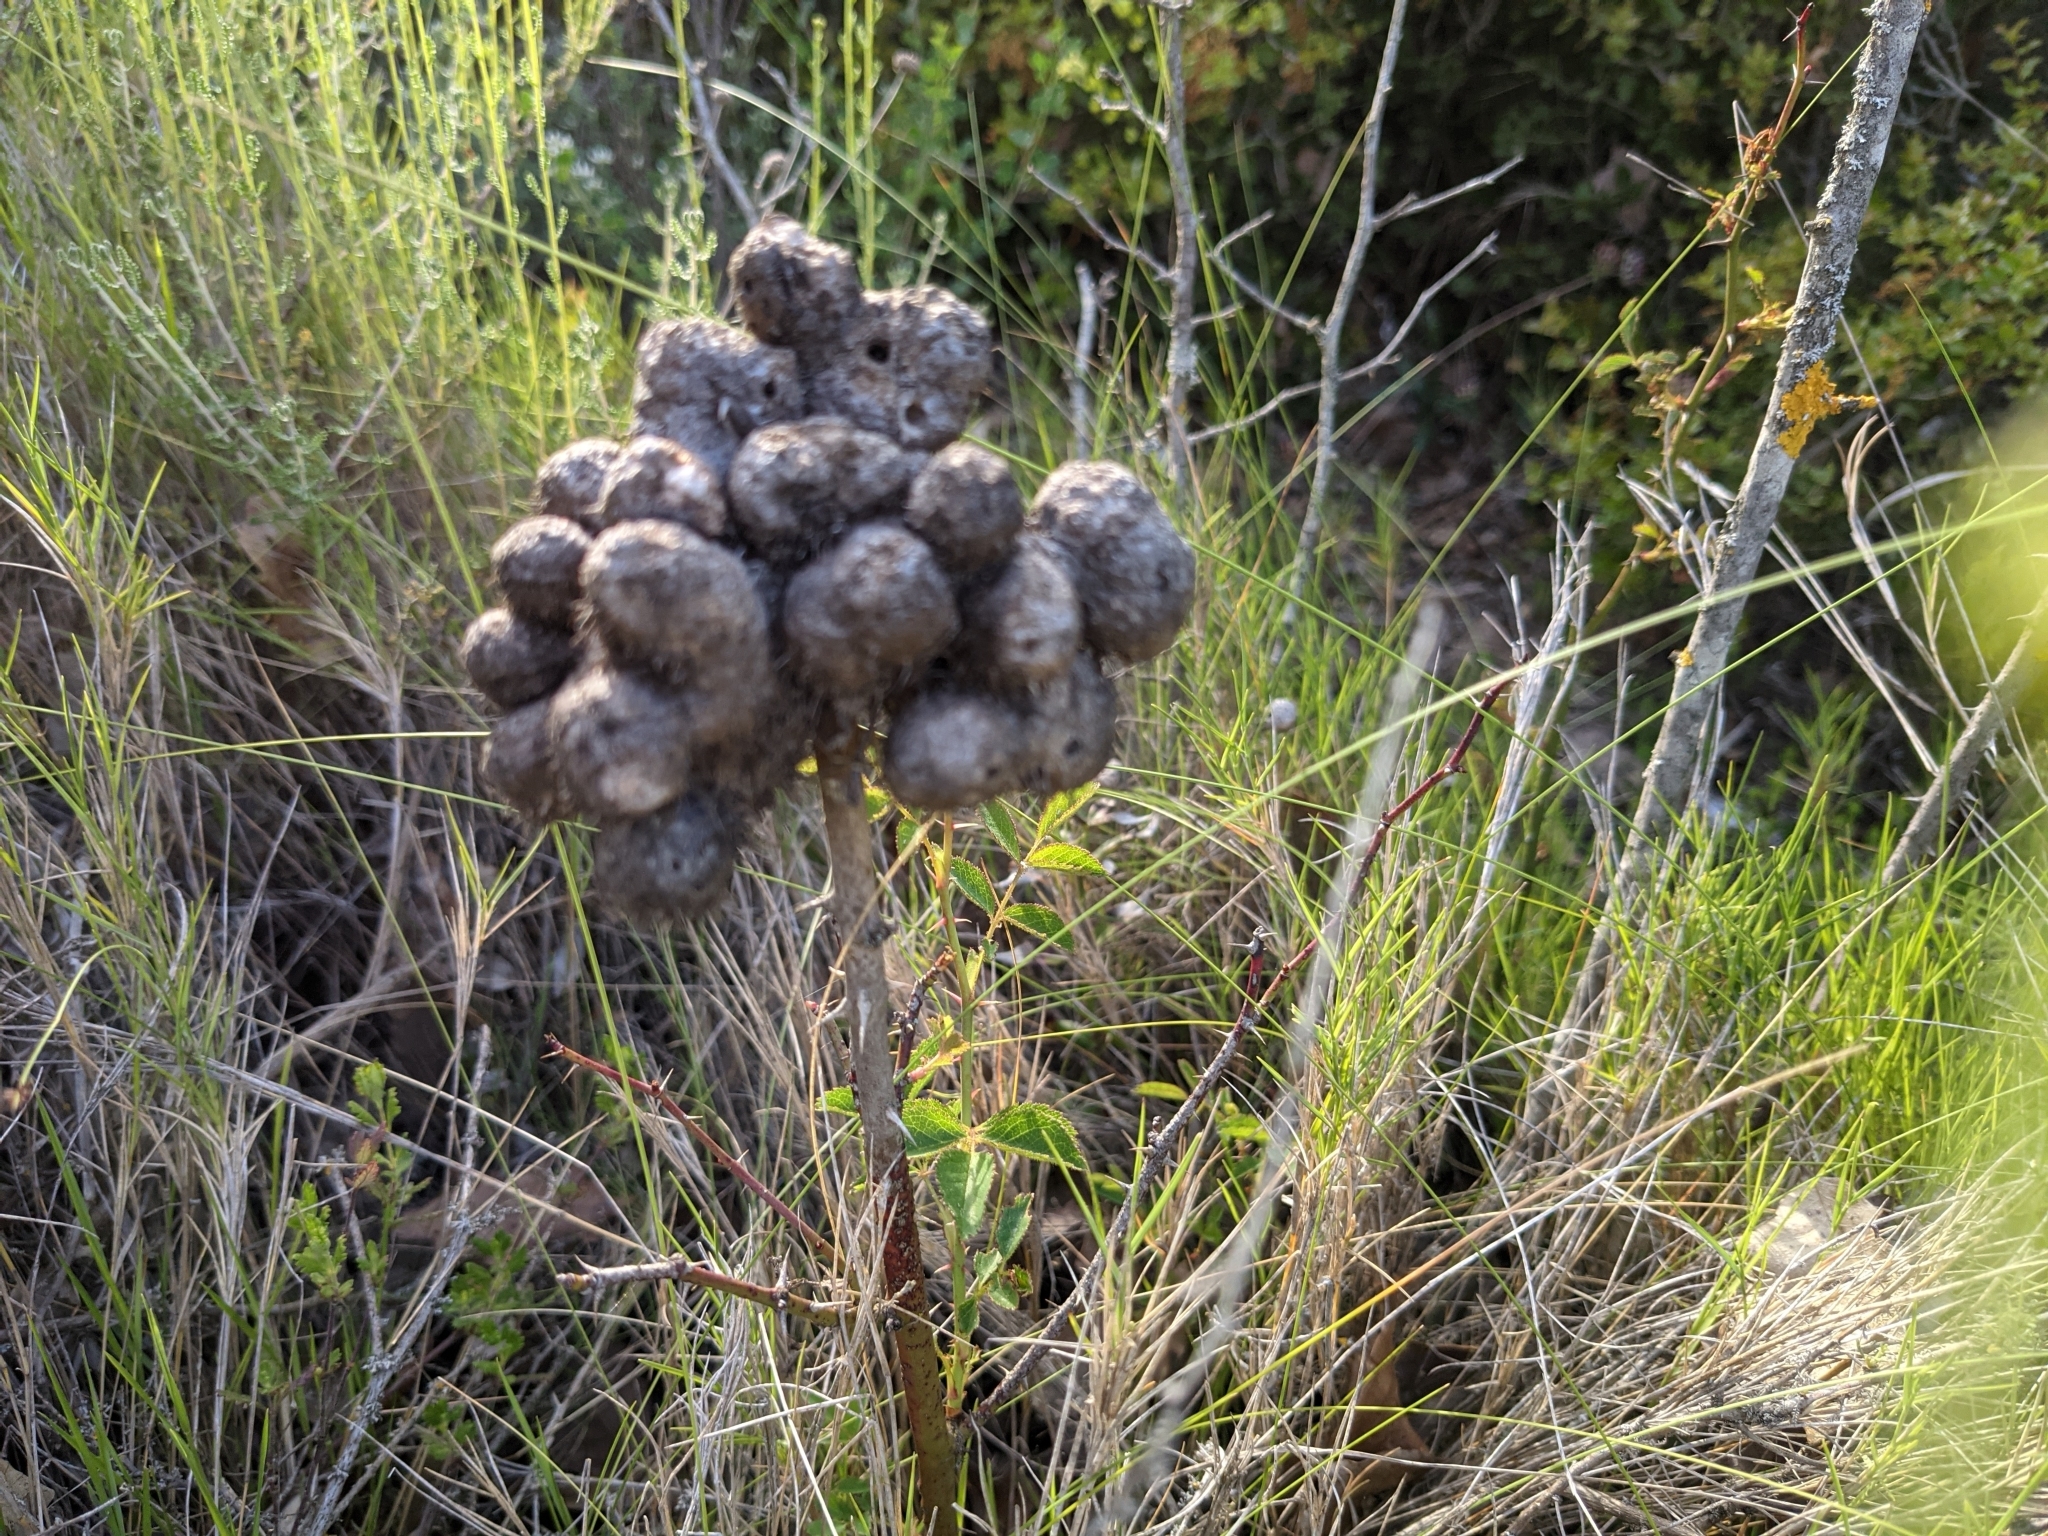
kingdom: Animalia
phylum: Arthropoda
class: Insecta
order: Hymenoptera
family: Cynipidae
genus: Diplolepis
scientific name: Diplolepis mayri
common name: Gall wasp
